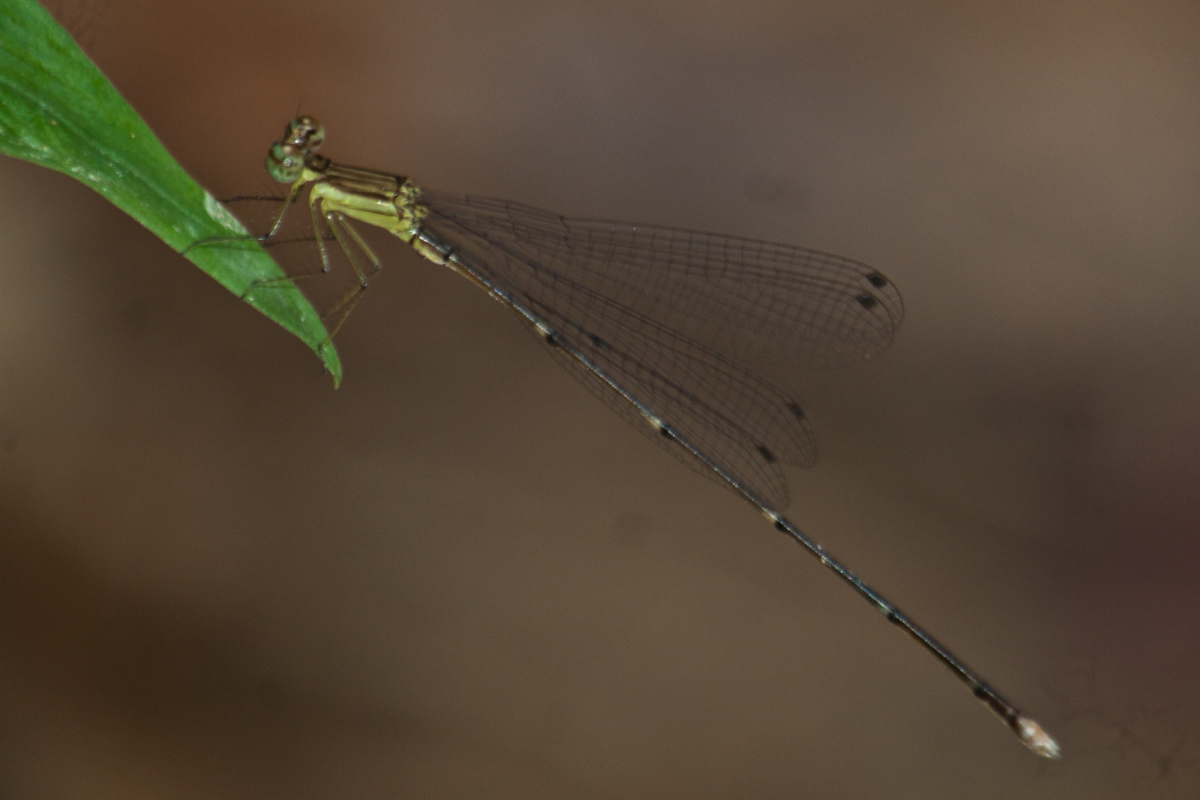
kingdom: Animalia
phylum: Arthropoda
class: Insecta
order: Odonata
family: Platycnemididae
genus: Coeliccia
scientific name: Coeliccia kazukoae
